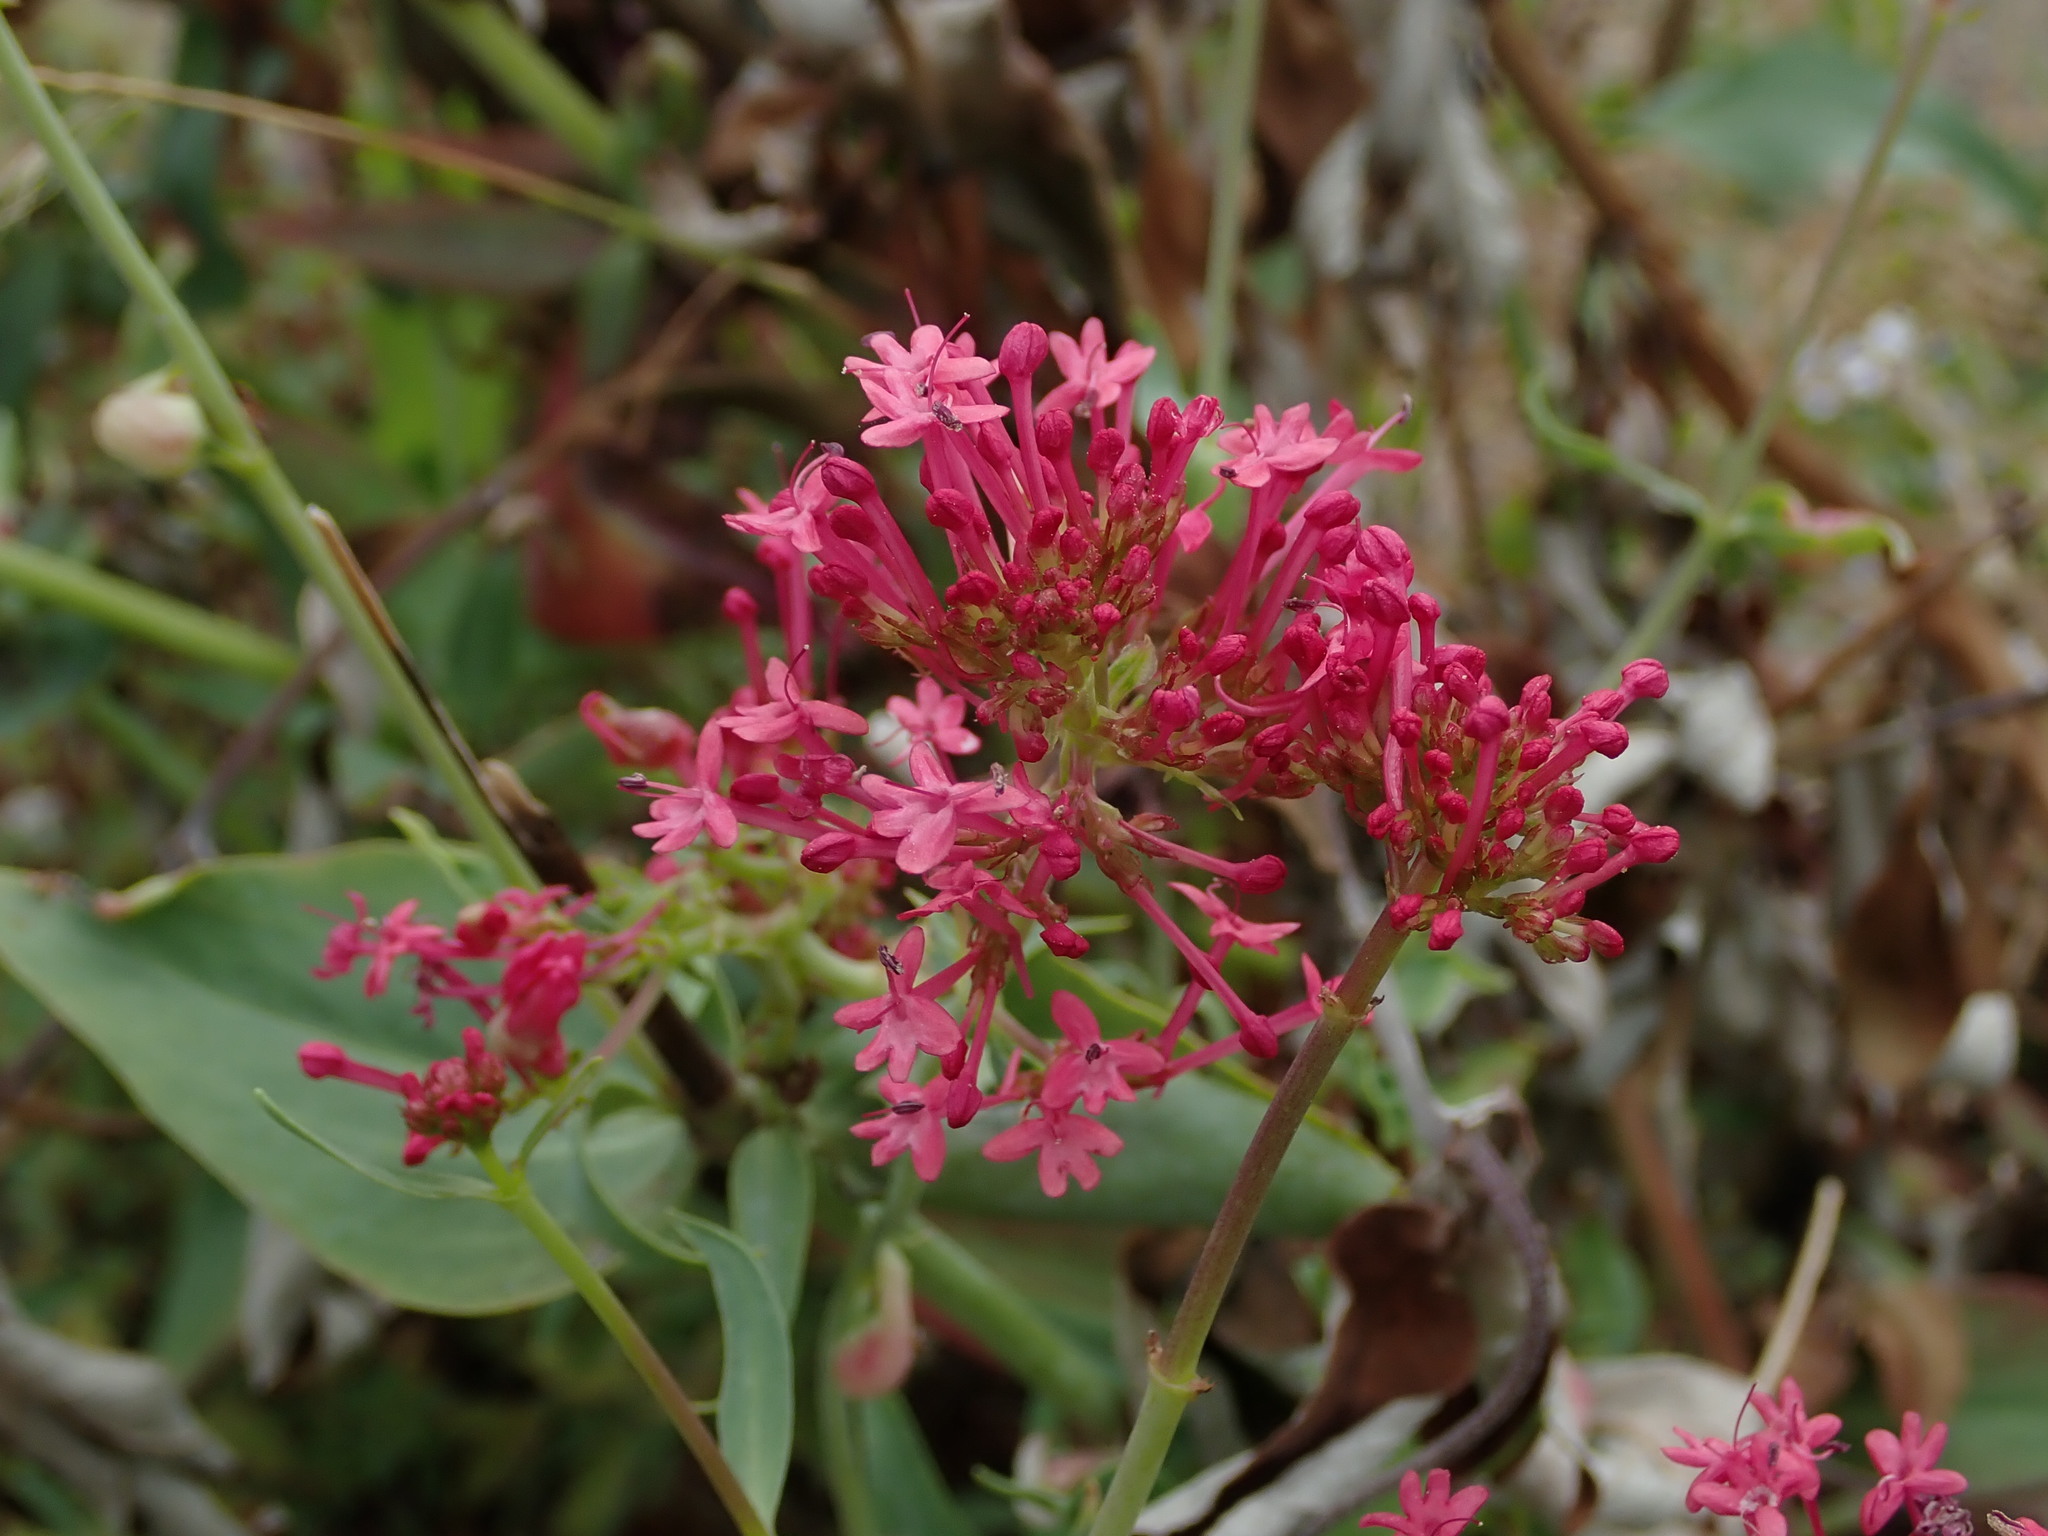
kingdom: Plantae
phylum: Tracheophyta
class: Magnoliopsida
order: Dipsacales
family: Caprifoliaceae
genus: Centranthus
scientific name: Centranthus ruber
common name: Red valerian
